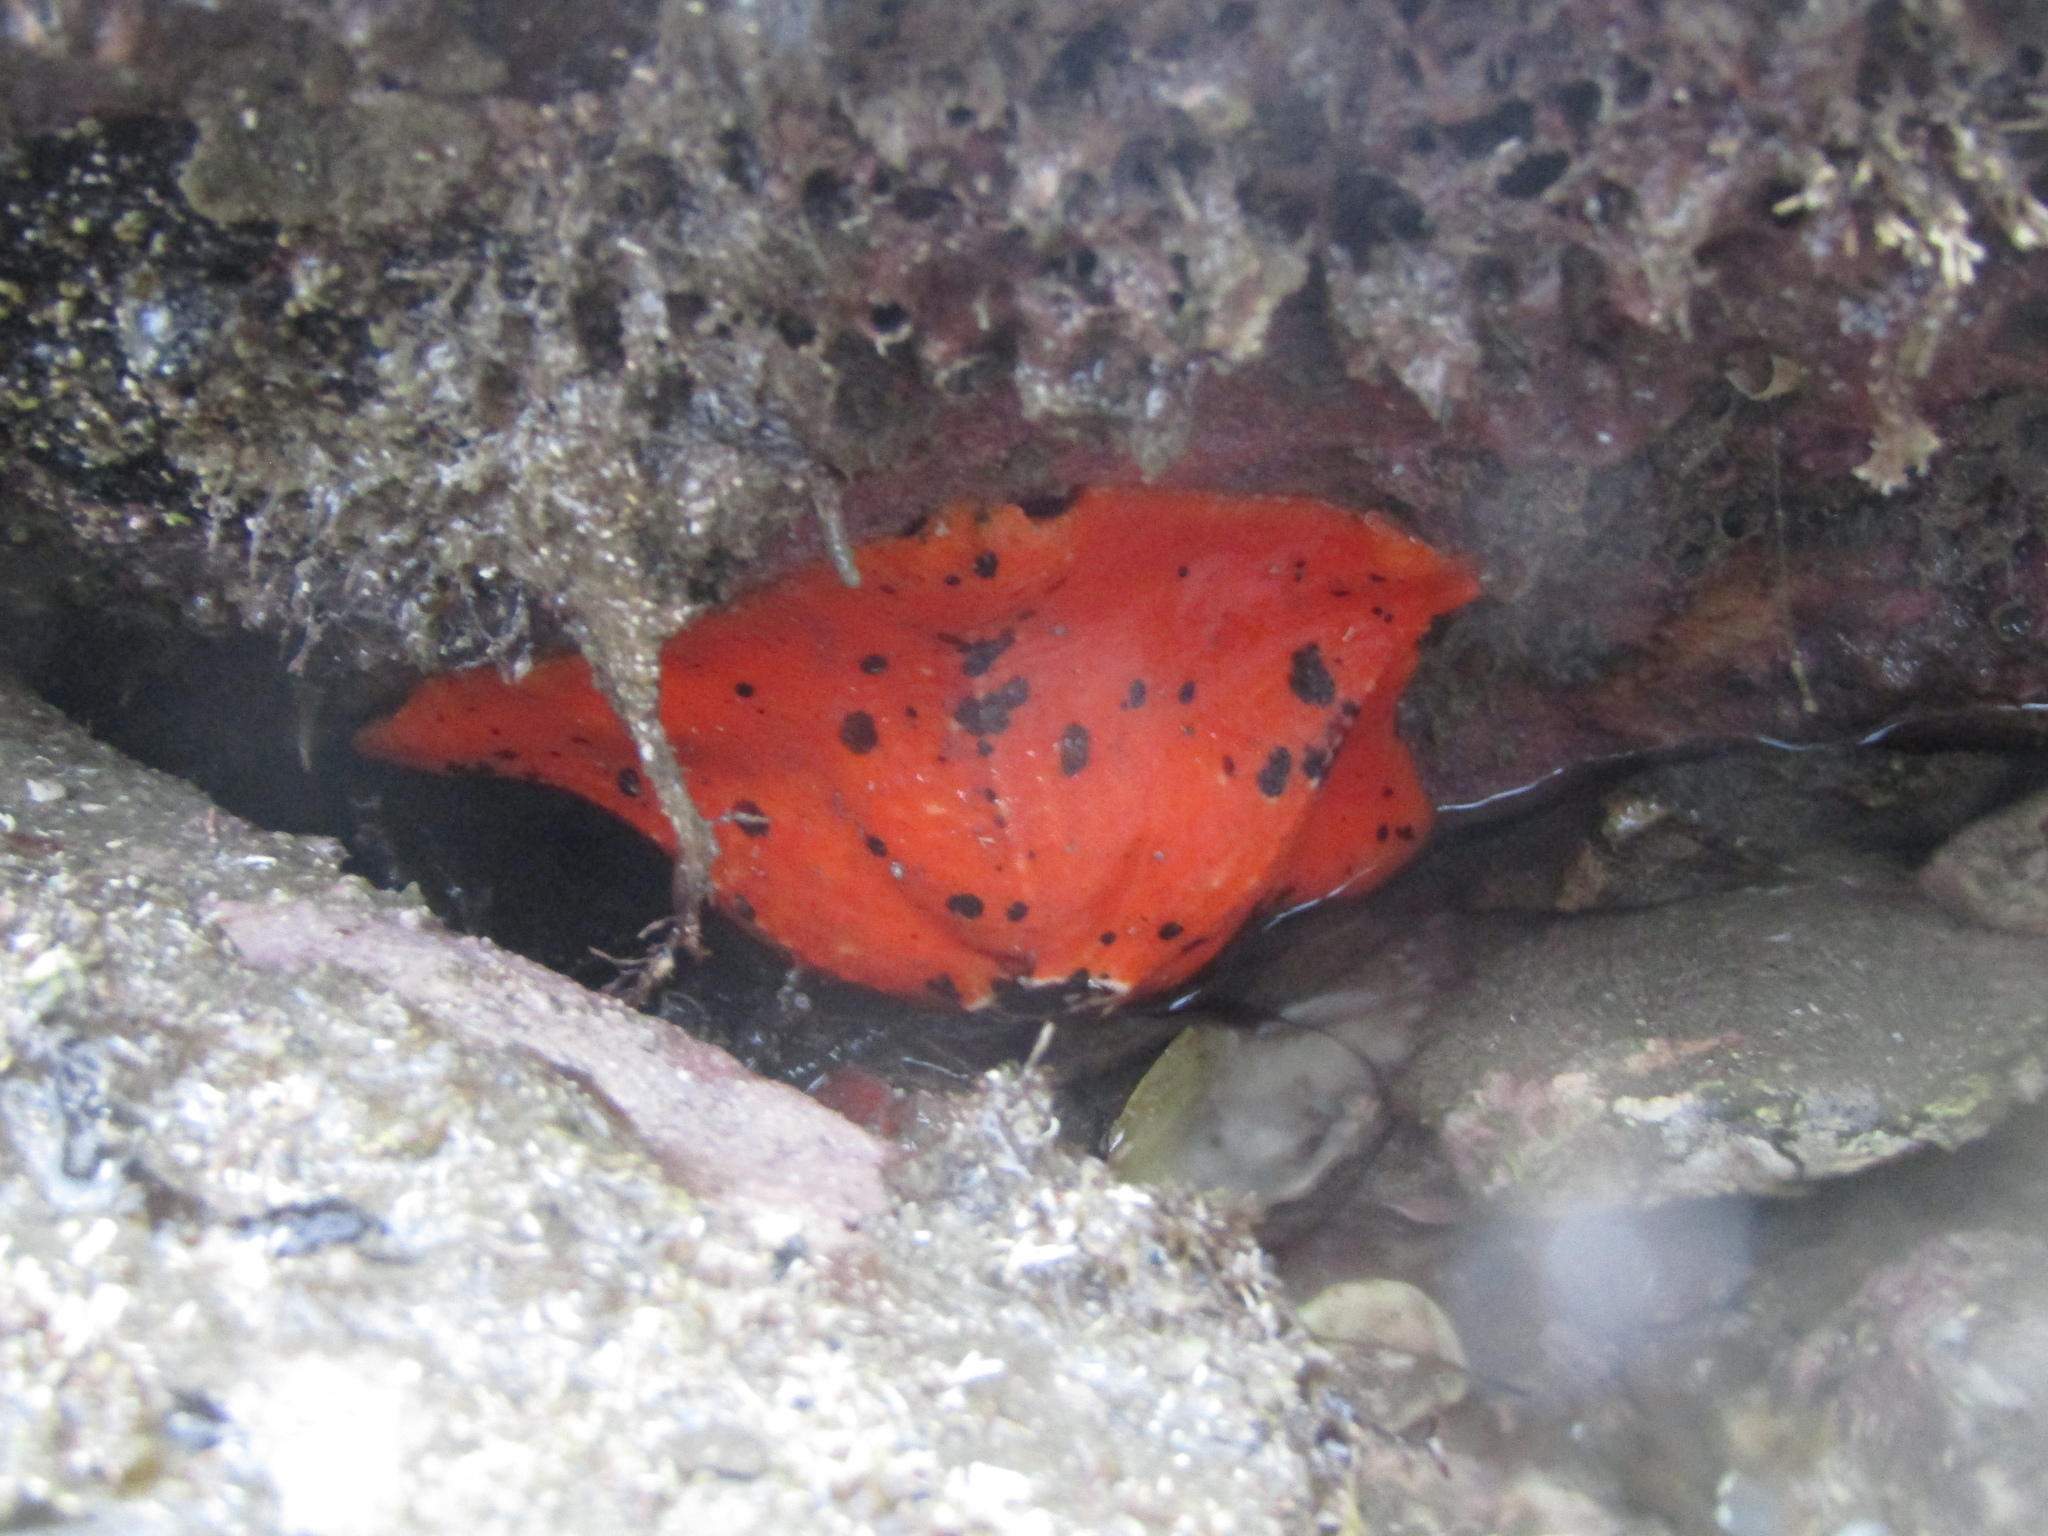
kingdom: Animalia
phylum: Echinodermata
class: Asteroidea
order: Valvatida
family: Asterinidae
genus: Stegnaster
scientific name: Stegnaster inflatus
